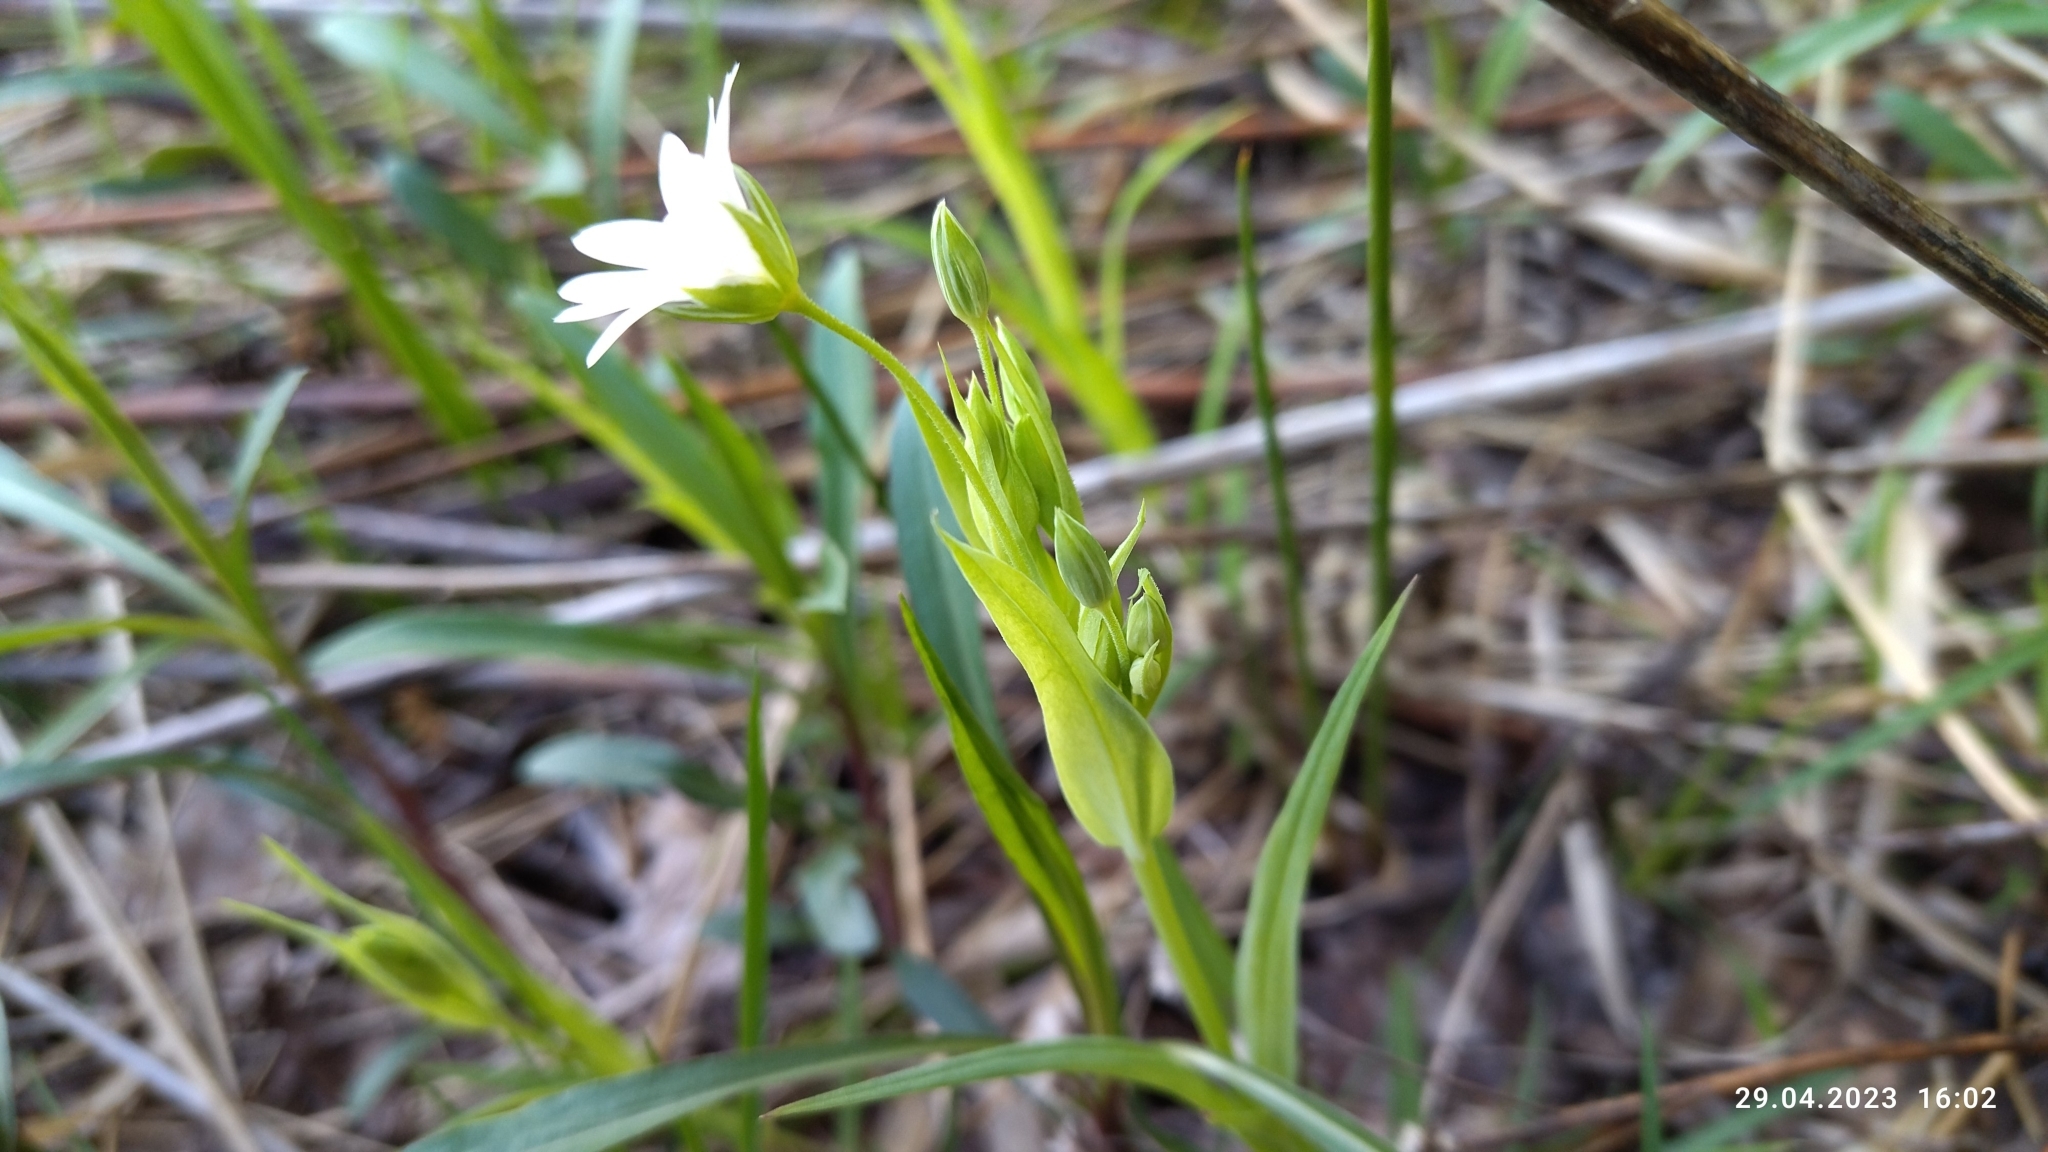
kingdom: Plantae
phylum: Tracheophyta
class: Magnoliopsida
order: Caryophyllales
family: Caryophyllaceae
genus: Rabelera
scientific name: Rabelera holostea
